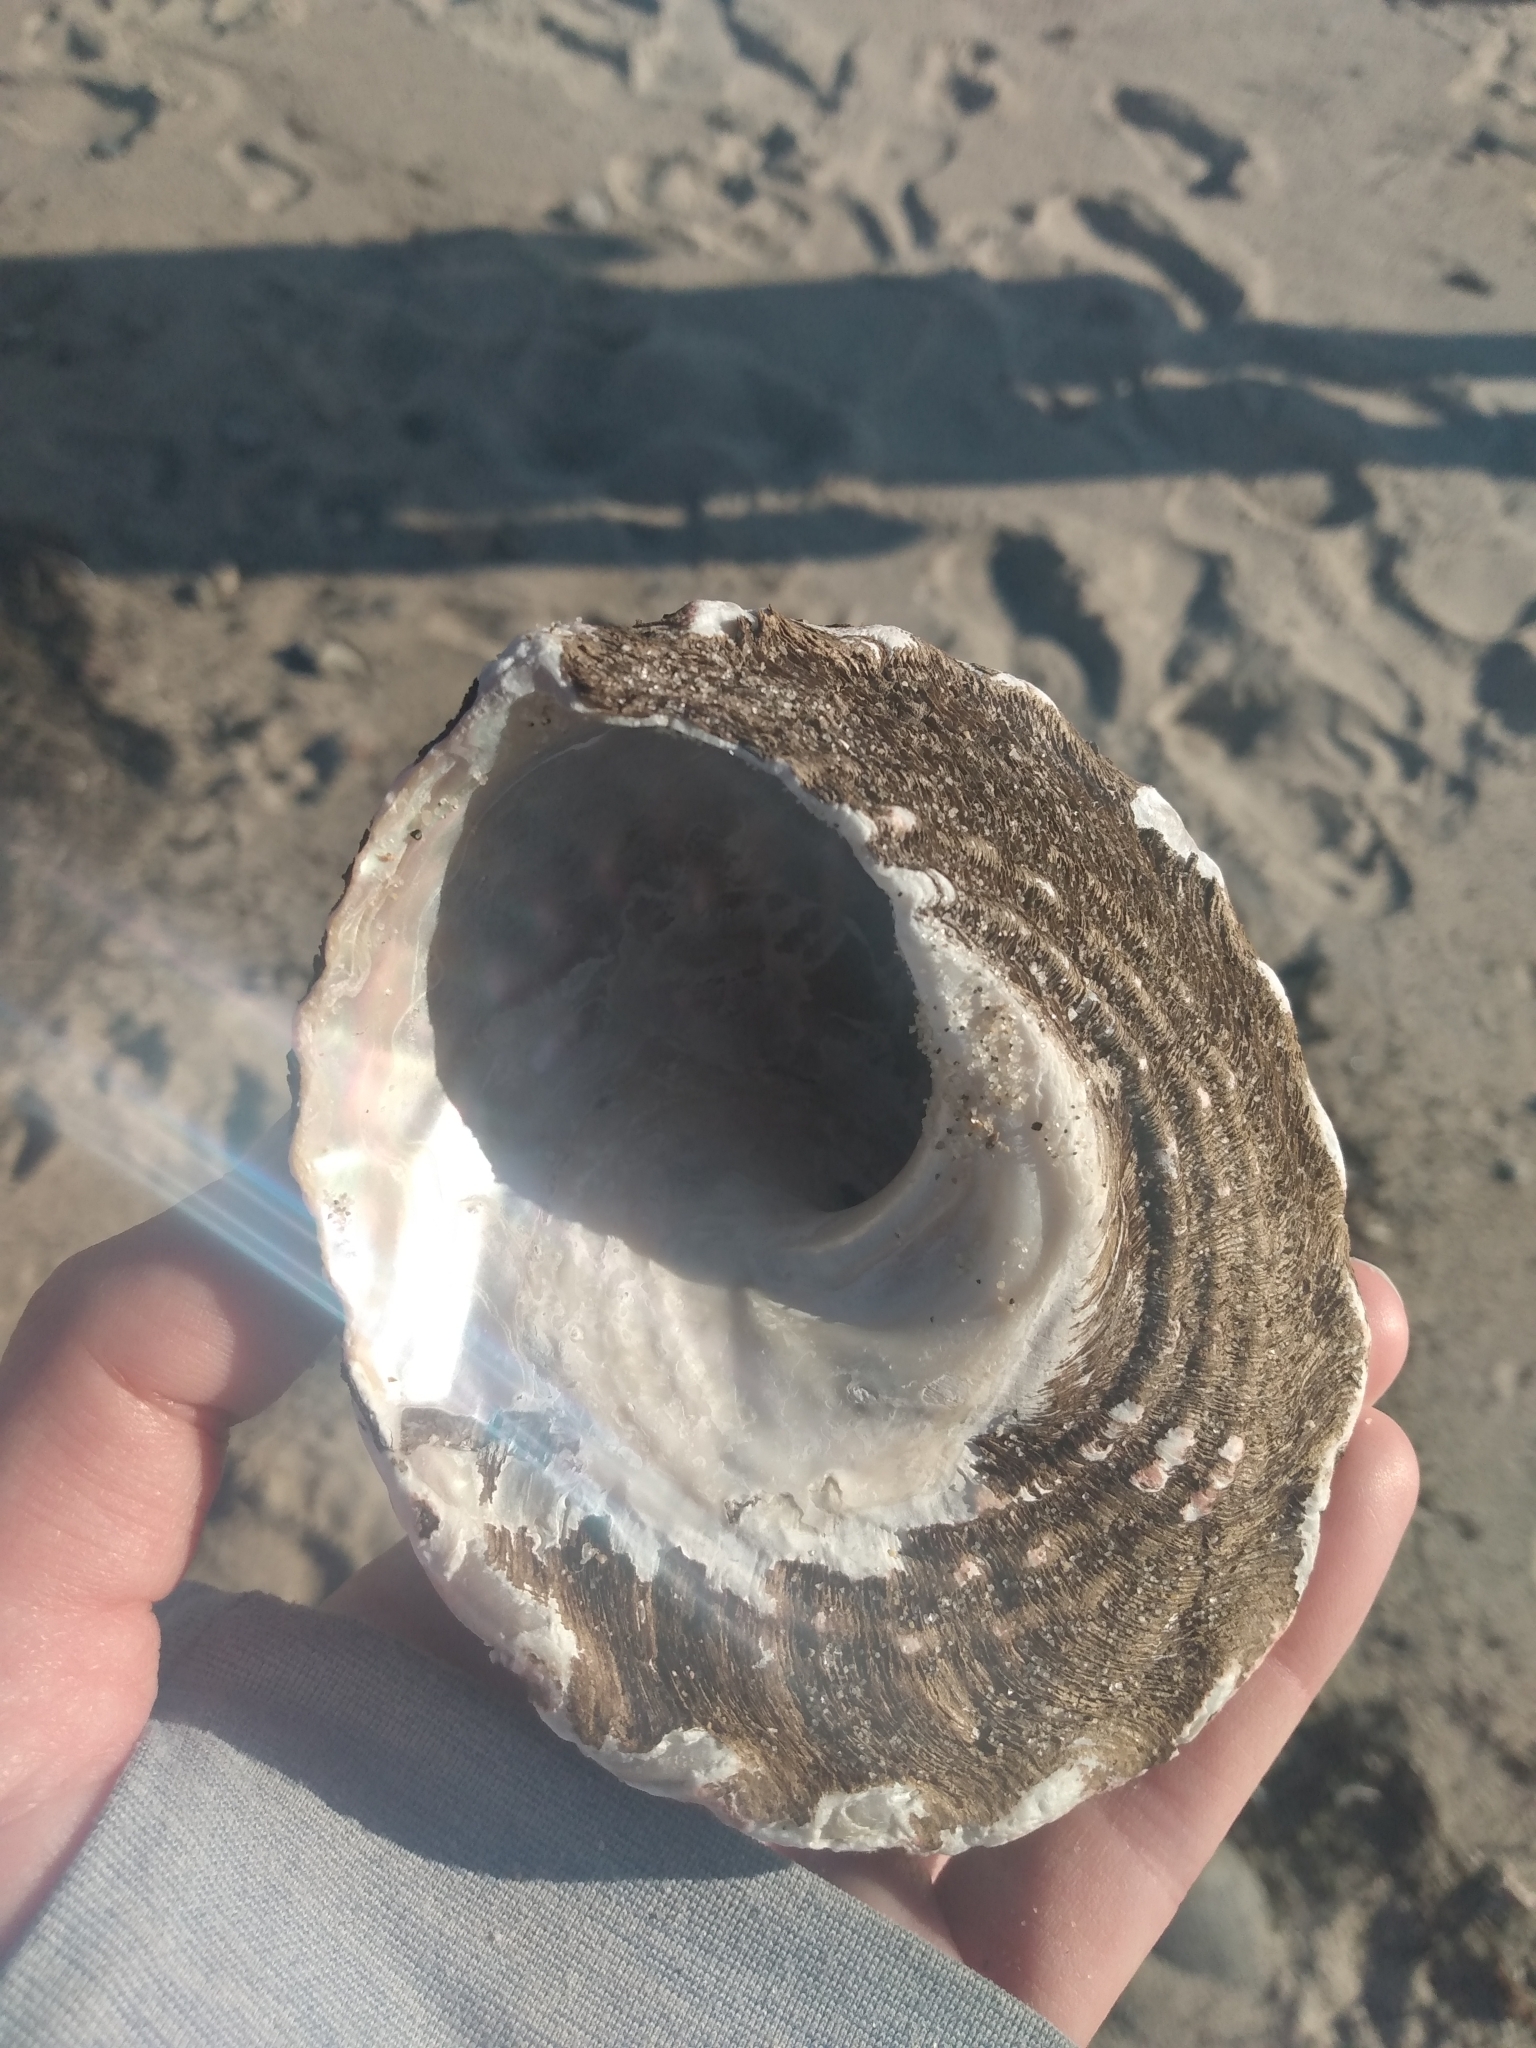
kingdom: Animalia
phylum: Mollusca
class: Gastropoda
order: Trochida
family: Turbinidae
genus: Megastraea
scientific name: Megastraea undosa
